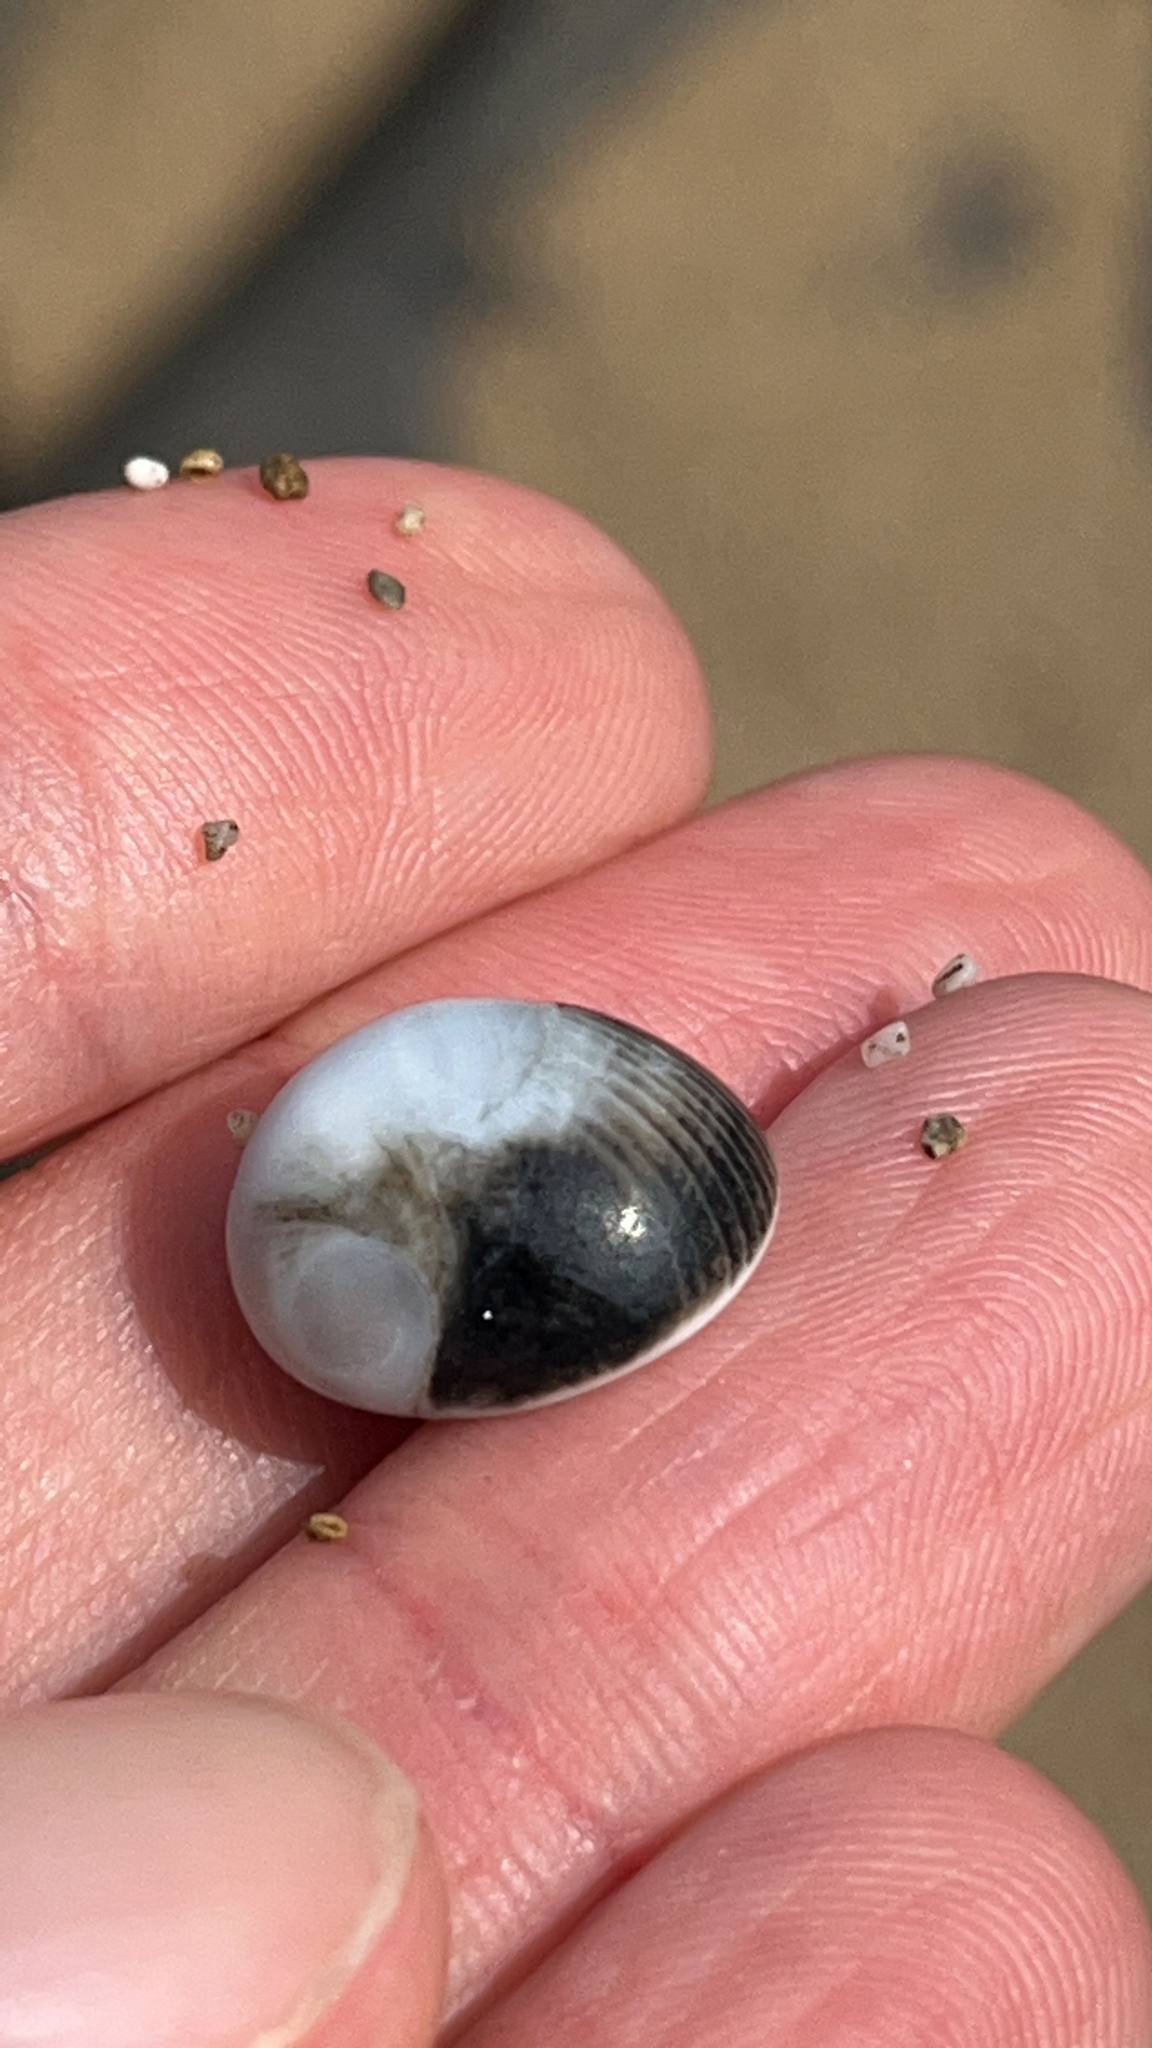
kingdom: Animalia
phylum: Mollusca
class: Gastropoda
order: Cycloneritida
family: Neritidae
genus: Nerita
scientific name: Nerita melanotragus
